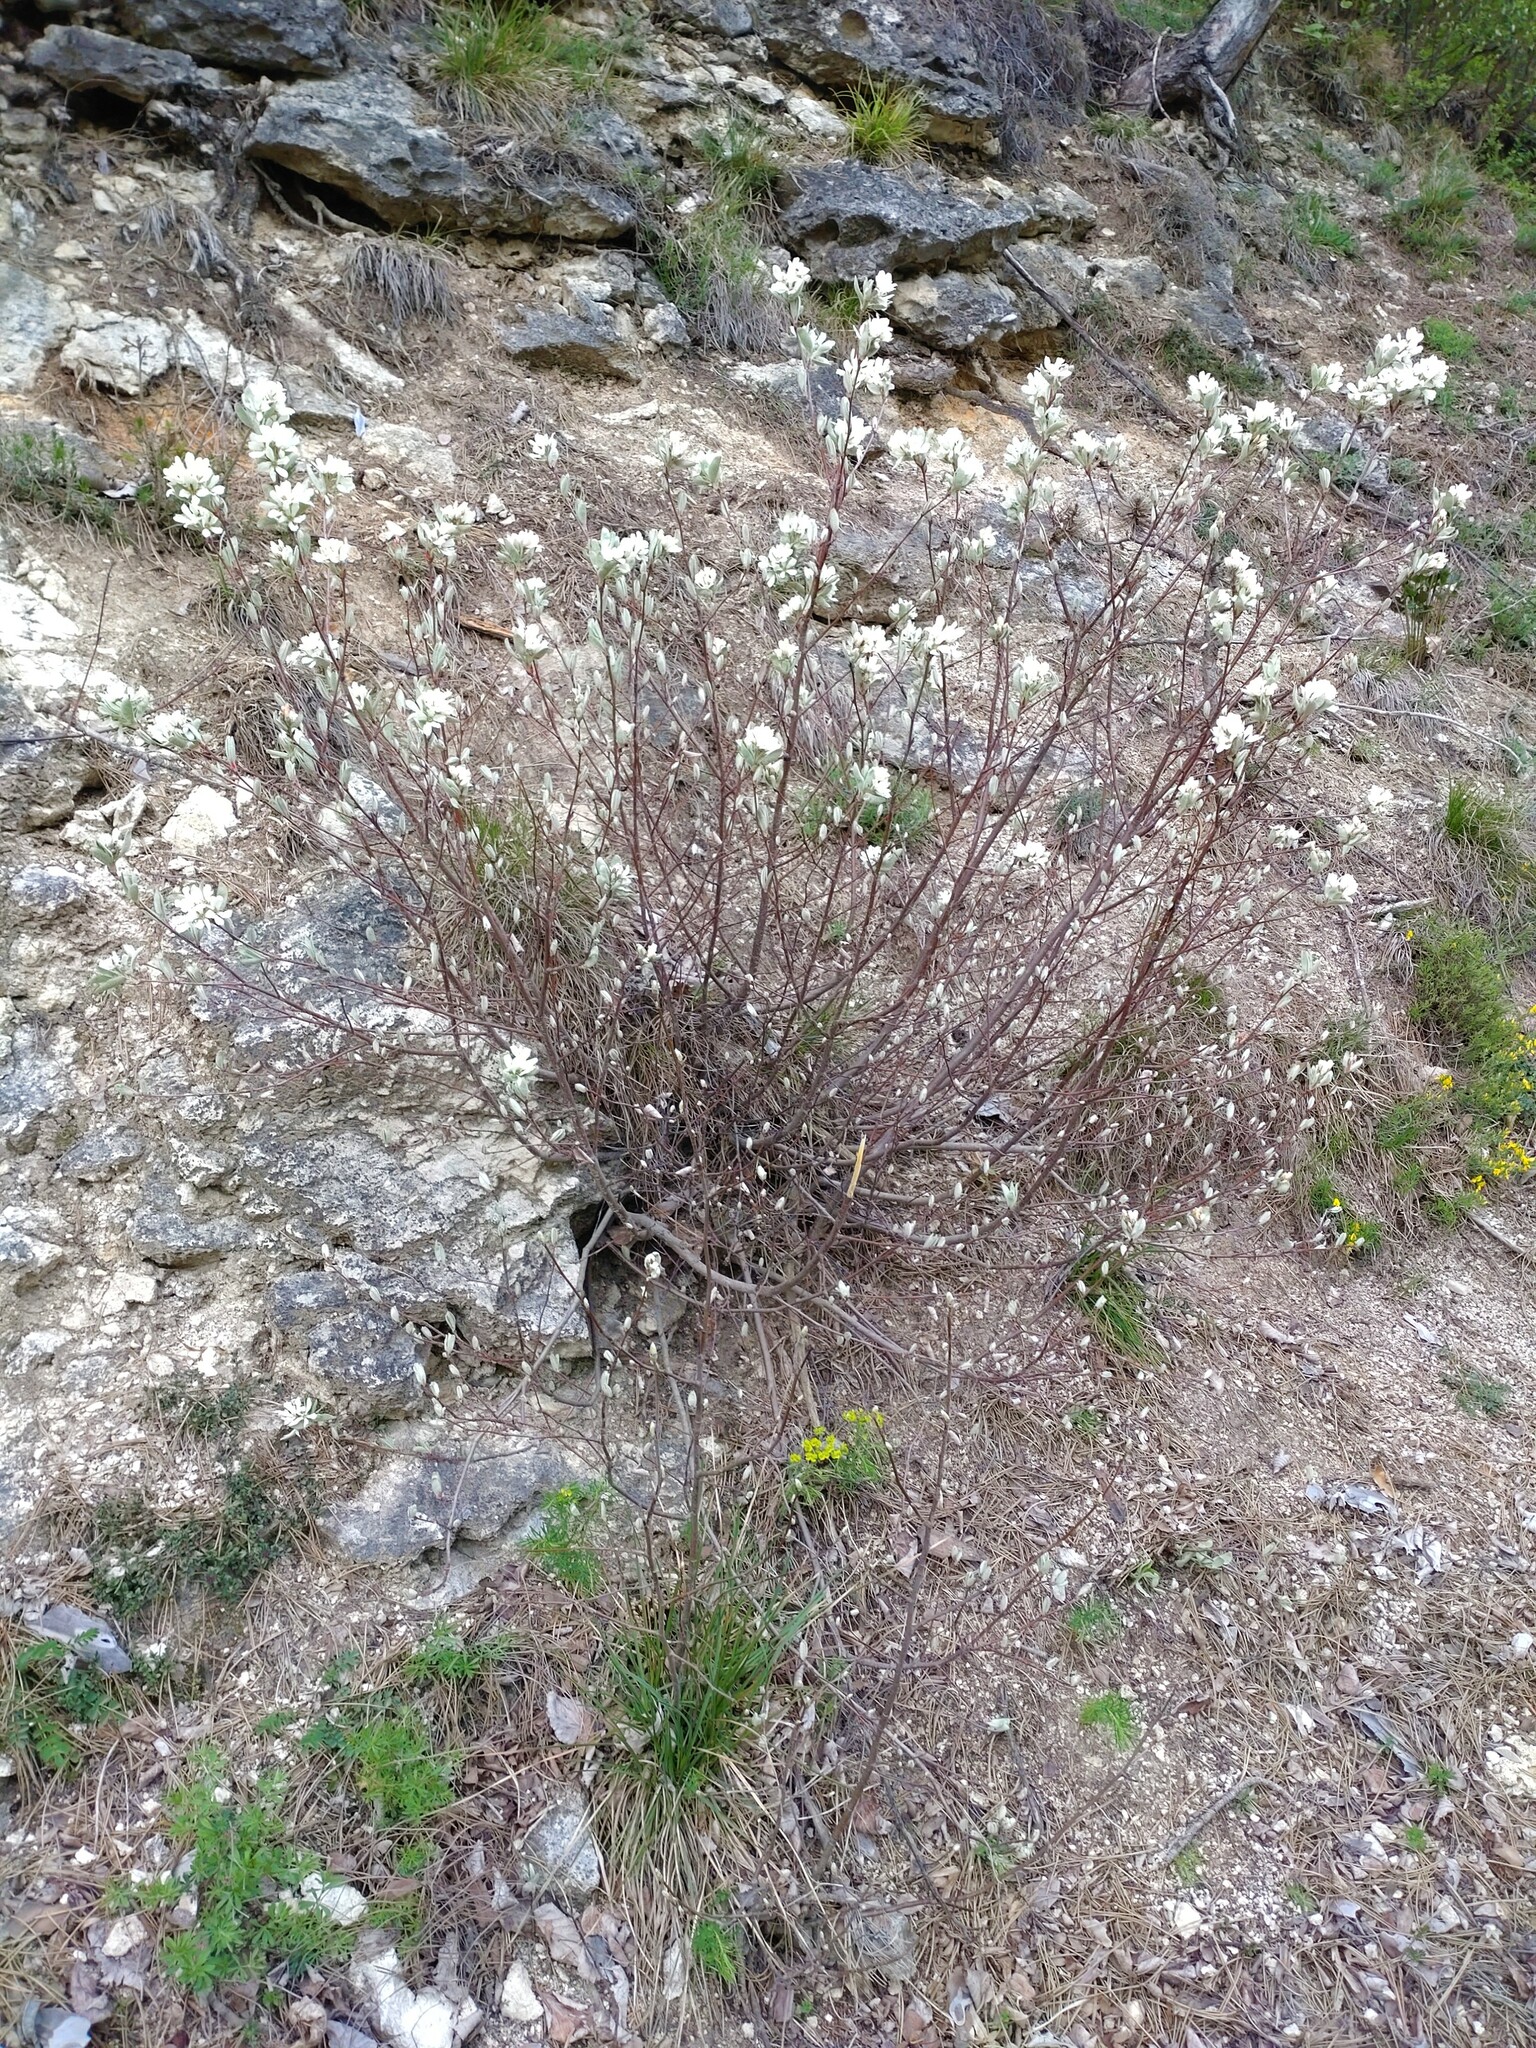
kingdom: Plantae
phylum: Tracheophyta
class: Magnoliopsida
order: Rosales
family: Rosaceae
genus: Amelanchier
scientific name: Amelanchier ovalis
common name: Serviceberry
